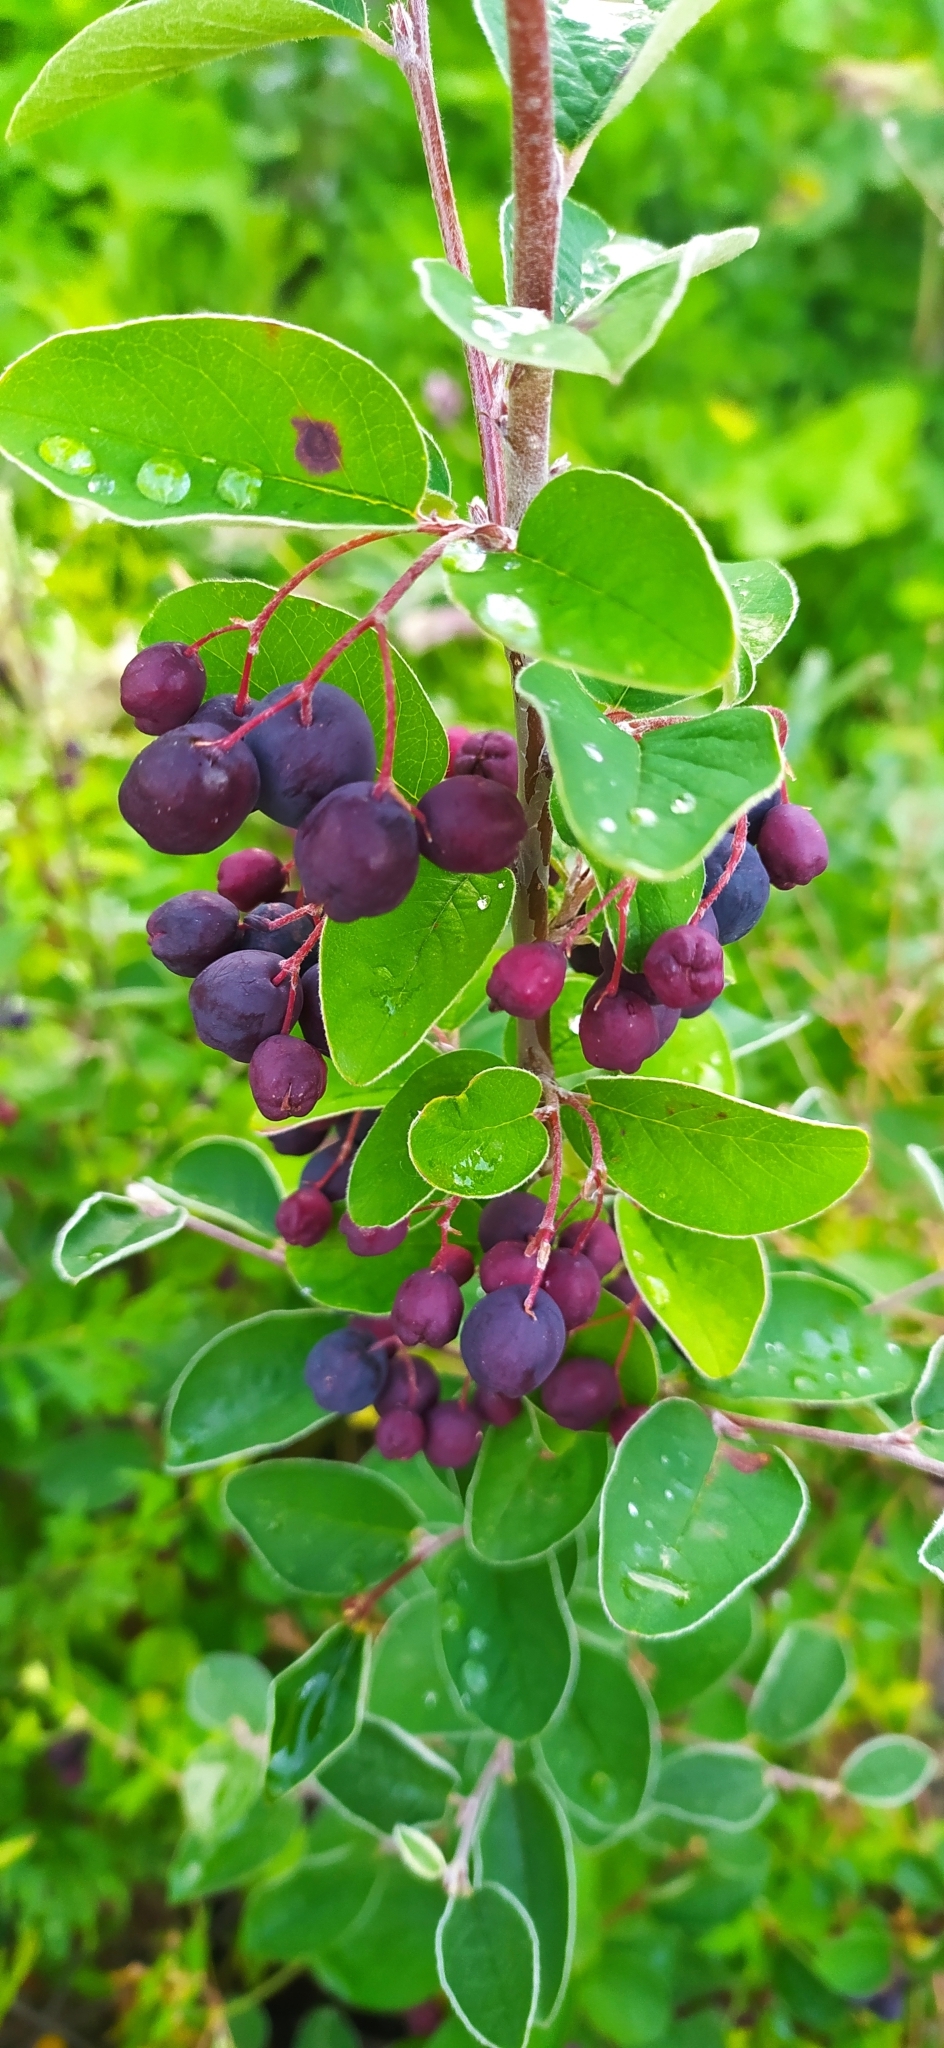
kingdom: Plantae
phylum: Tracheophyta
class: Magnoliopsida
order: Rosales
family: Rosaceae
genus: Cotoneaster
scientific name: Cotoneaster melanocarpus
